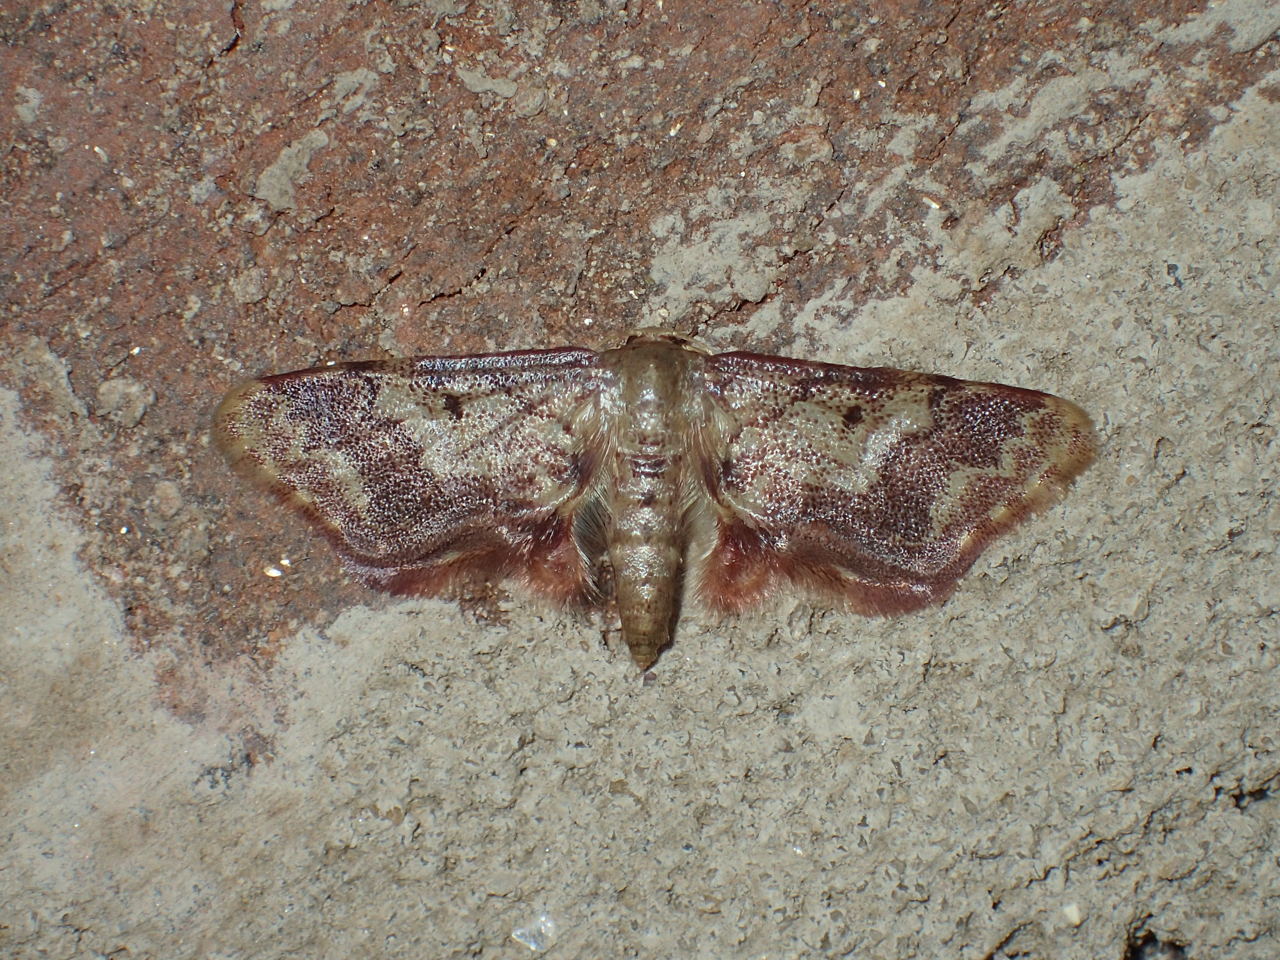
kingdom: Animalia
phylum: Arthropoda
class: Insecta
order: Lepidoptera
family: Geometridae
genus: Idaea
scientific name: Idaea furciferata
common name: Notch-winged wave
